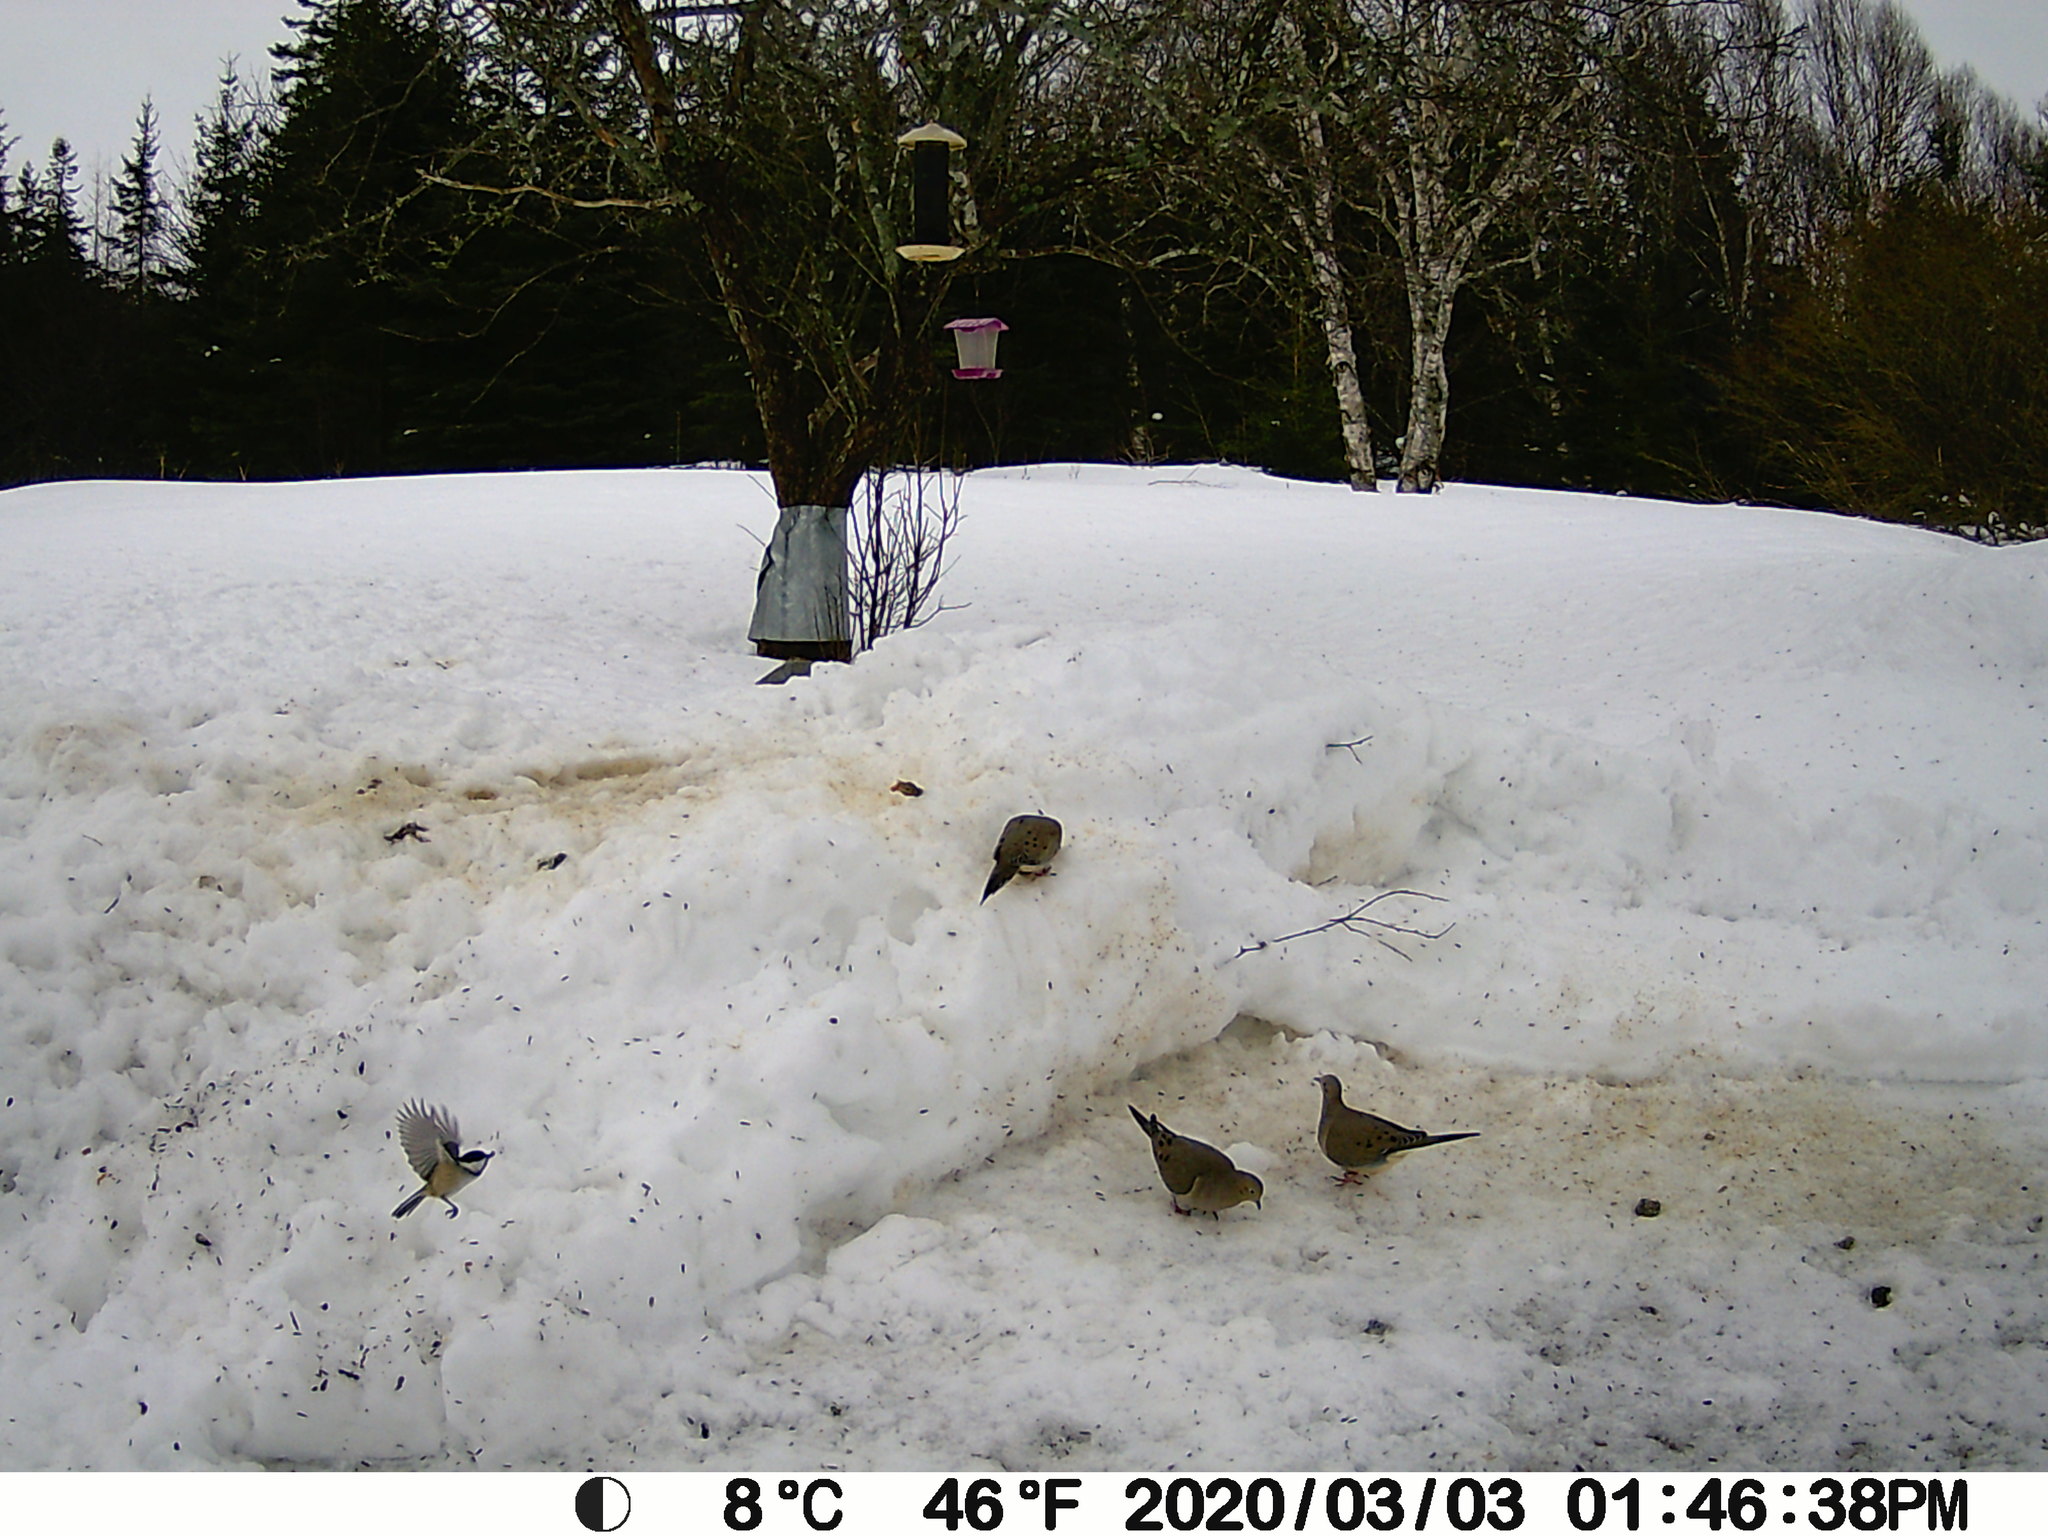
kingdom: Animalia
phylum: Chordata
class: Aves
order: Columbiformes
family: Columbidae
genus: Zenaida
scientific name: Zenaida macroura
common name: Mourning dove
